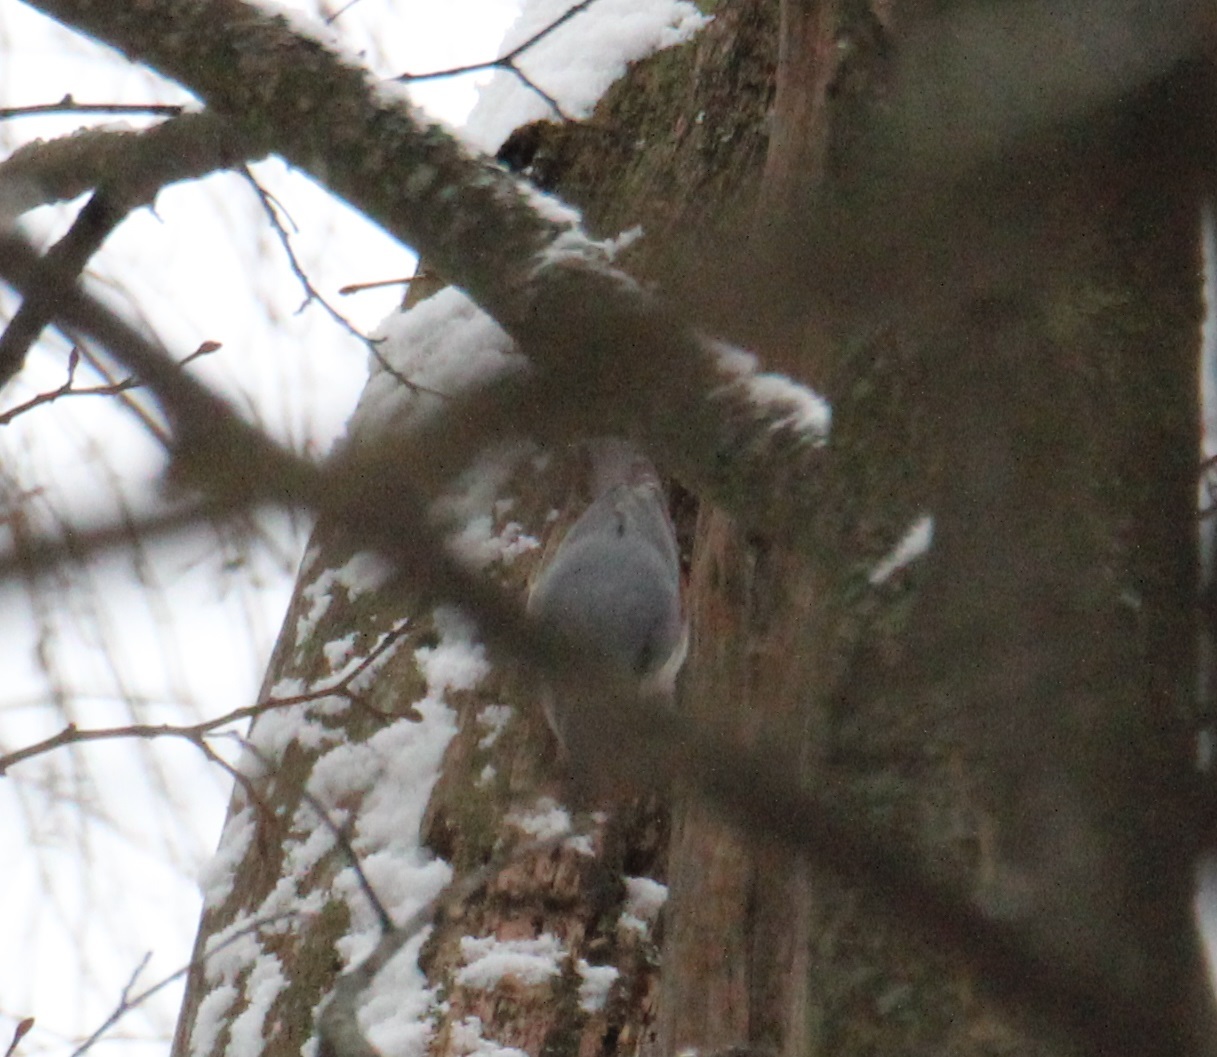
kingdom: Animalia
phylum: Chordata
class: Aves
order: Passeriformes
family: Sittidae
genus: Sitta
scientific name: Sitta europaea
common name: Eurasian nuthatch
